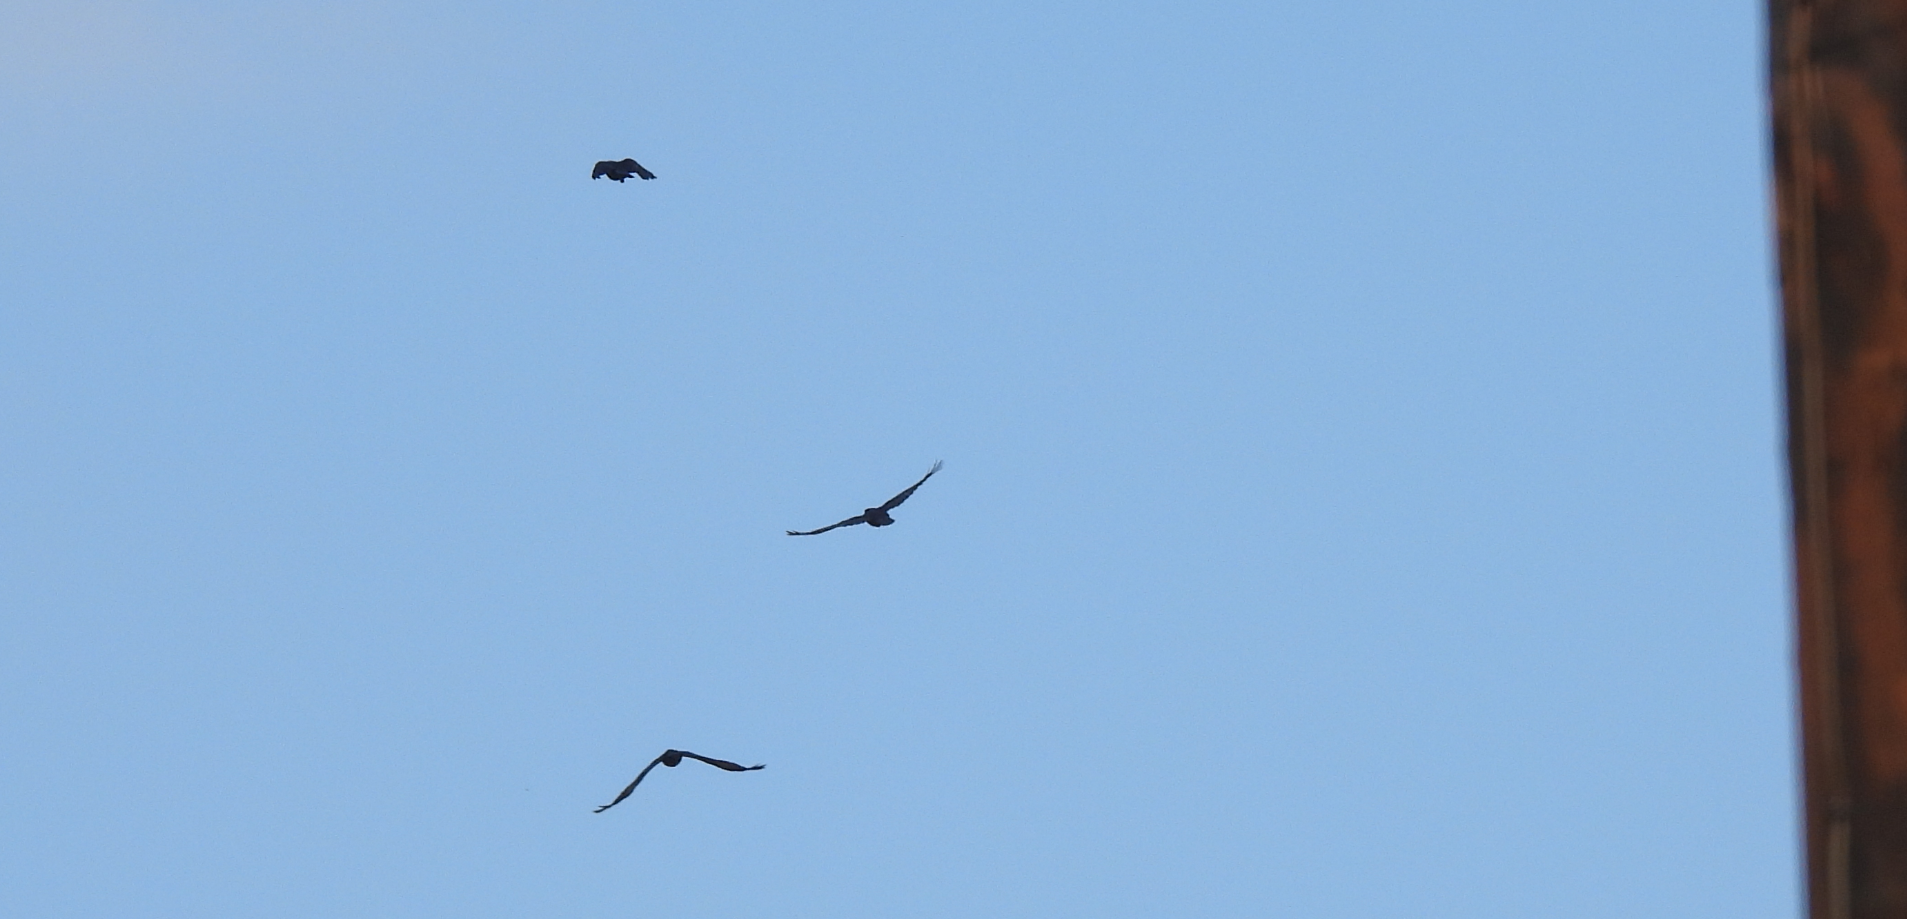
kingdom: Animalia
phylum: Chordata
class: Aves
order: Passeriformes
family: Corvidae
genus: Corvus
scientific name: Corvus brachyrhynchos
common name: American crow
